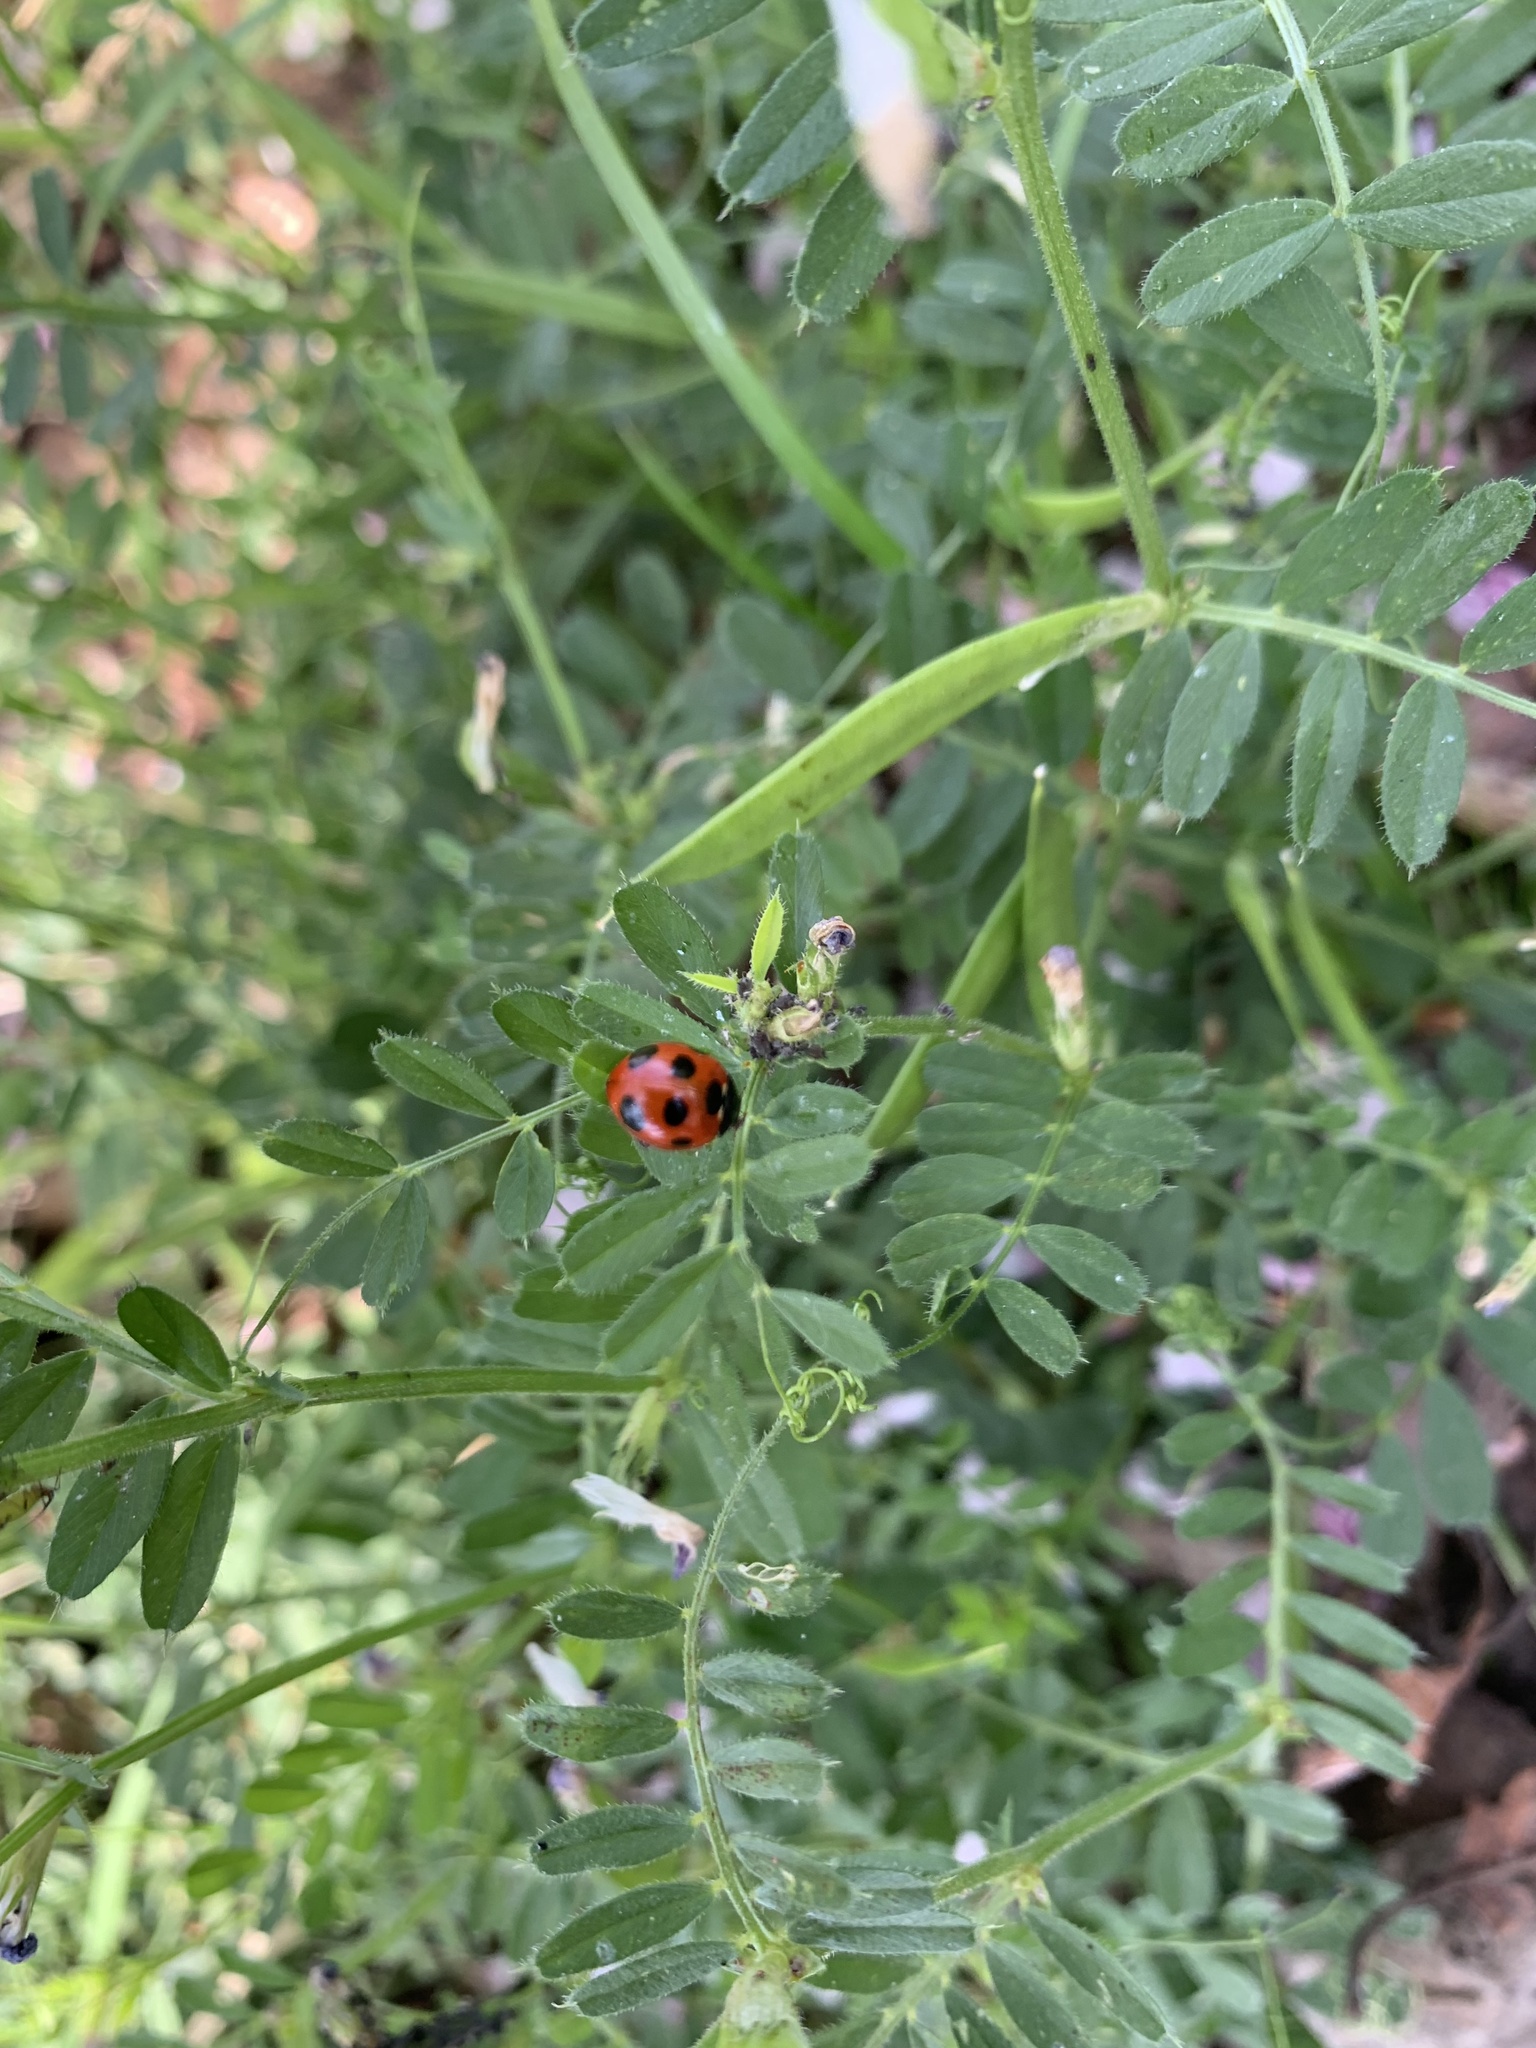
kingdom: Animalia
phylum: Arthropoda
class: Insecta
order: Coleoptera
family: Coccinellidae
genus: Coccinella
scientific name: Coccinella septempunctata
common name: Sevenspotted lady beetle
